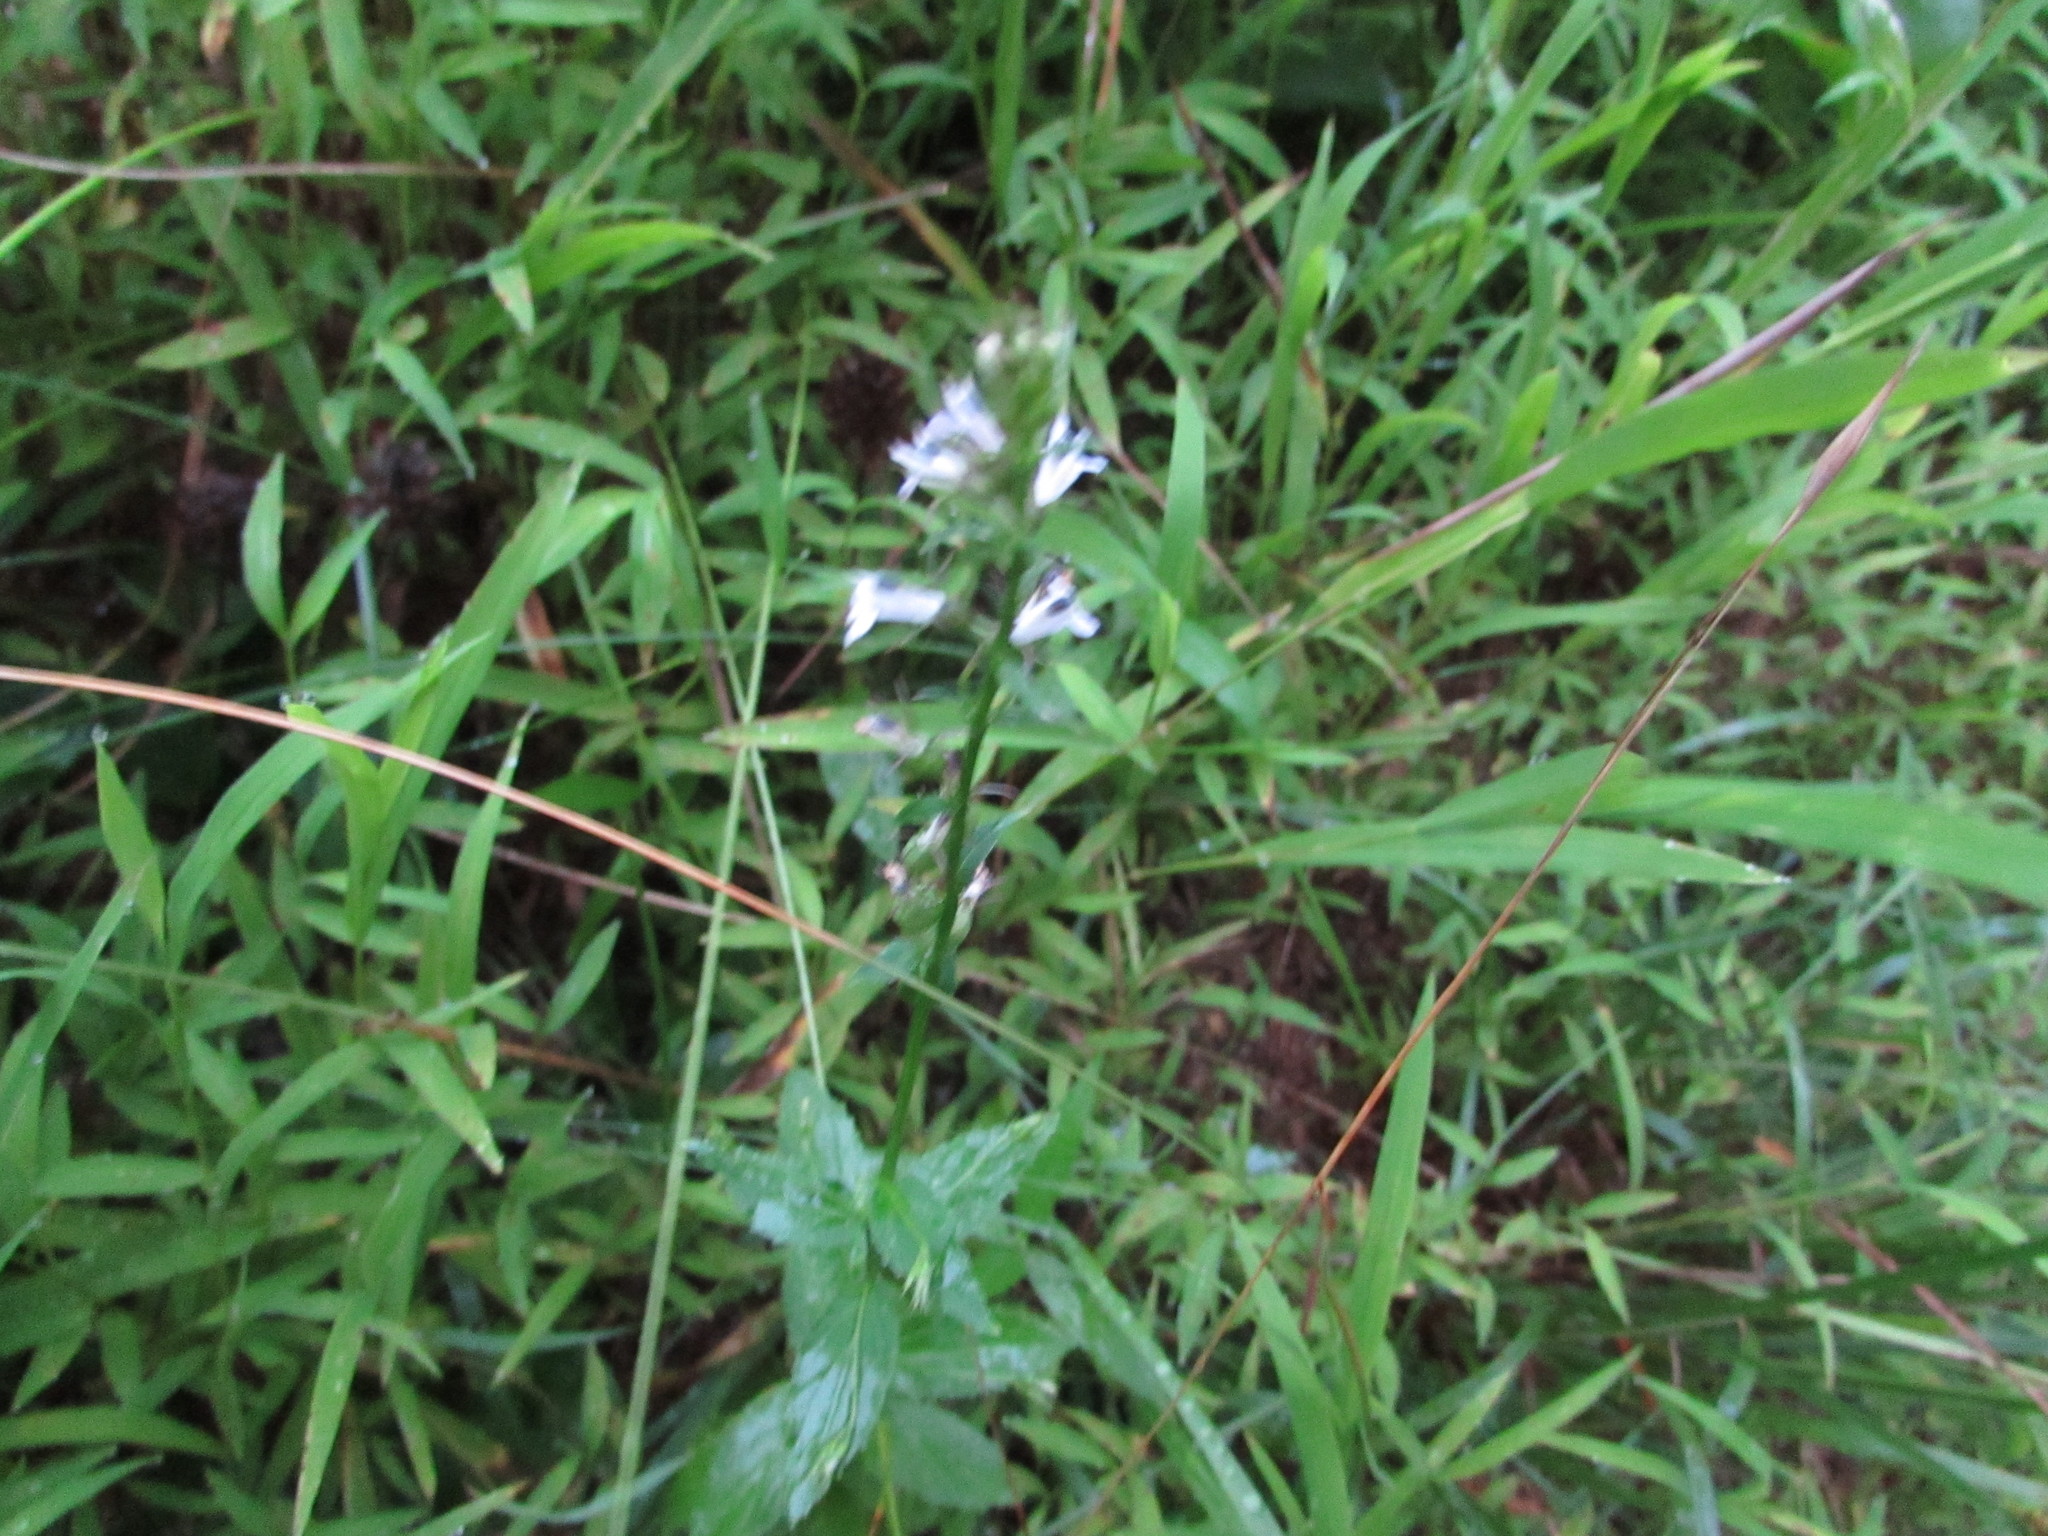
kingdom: Plantae
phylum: Tracheophyta
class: Magnoliopsida
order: Asterales
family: Campanulaceae
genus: Lobelia
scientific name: Lobelia inflata
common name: Indian tobacco
